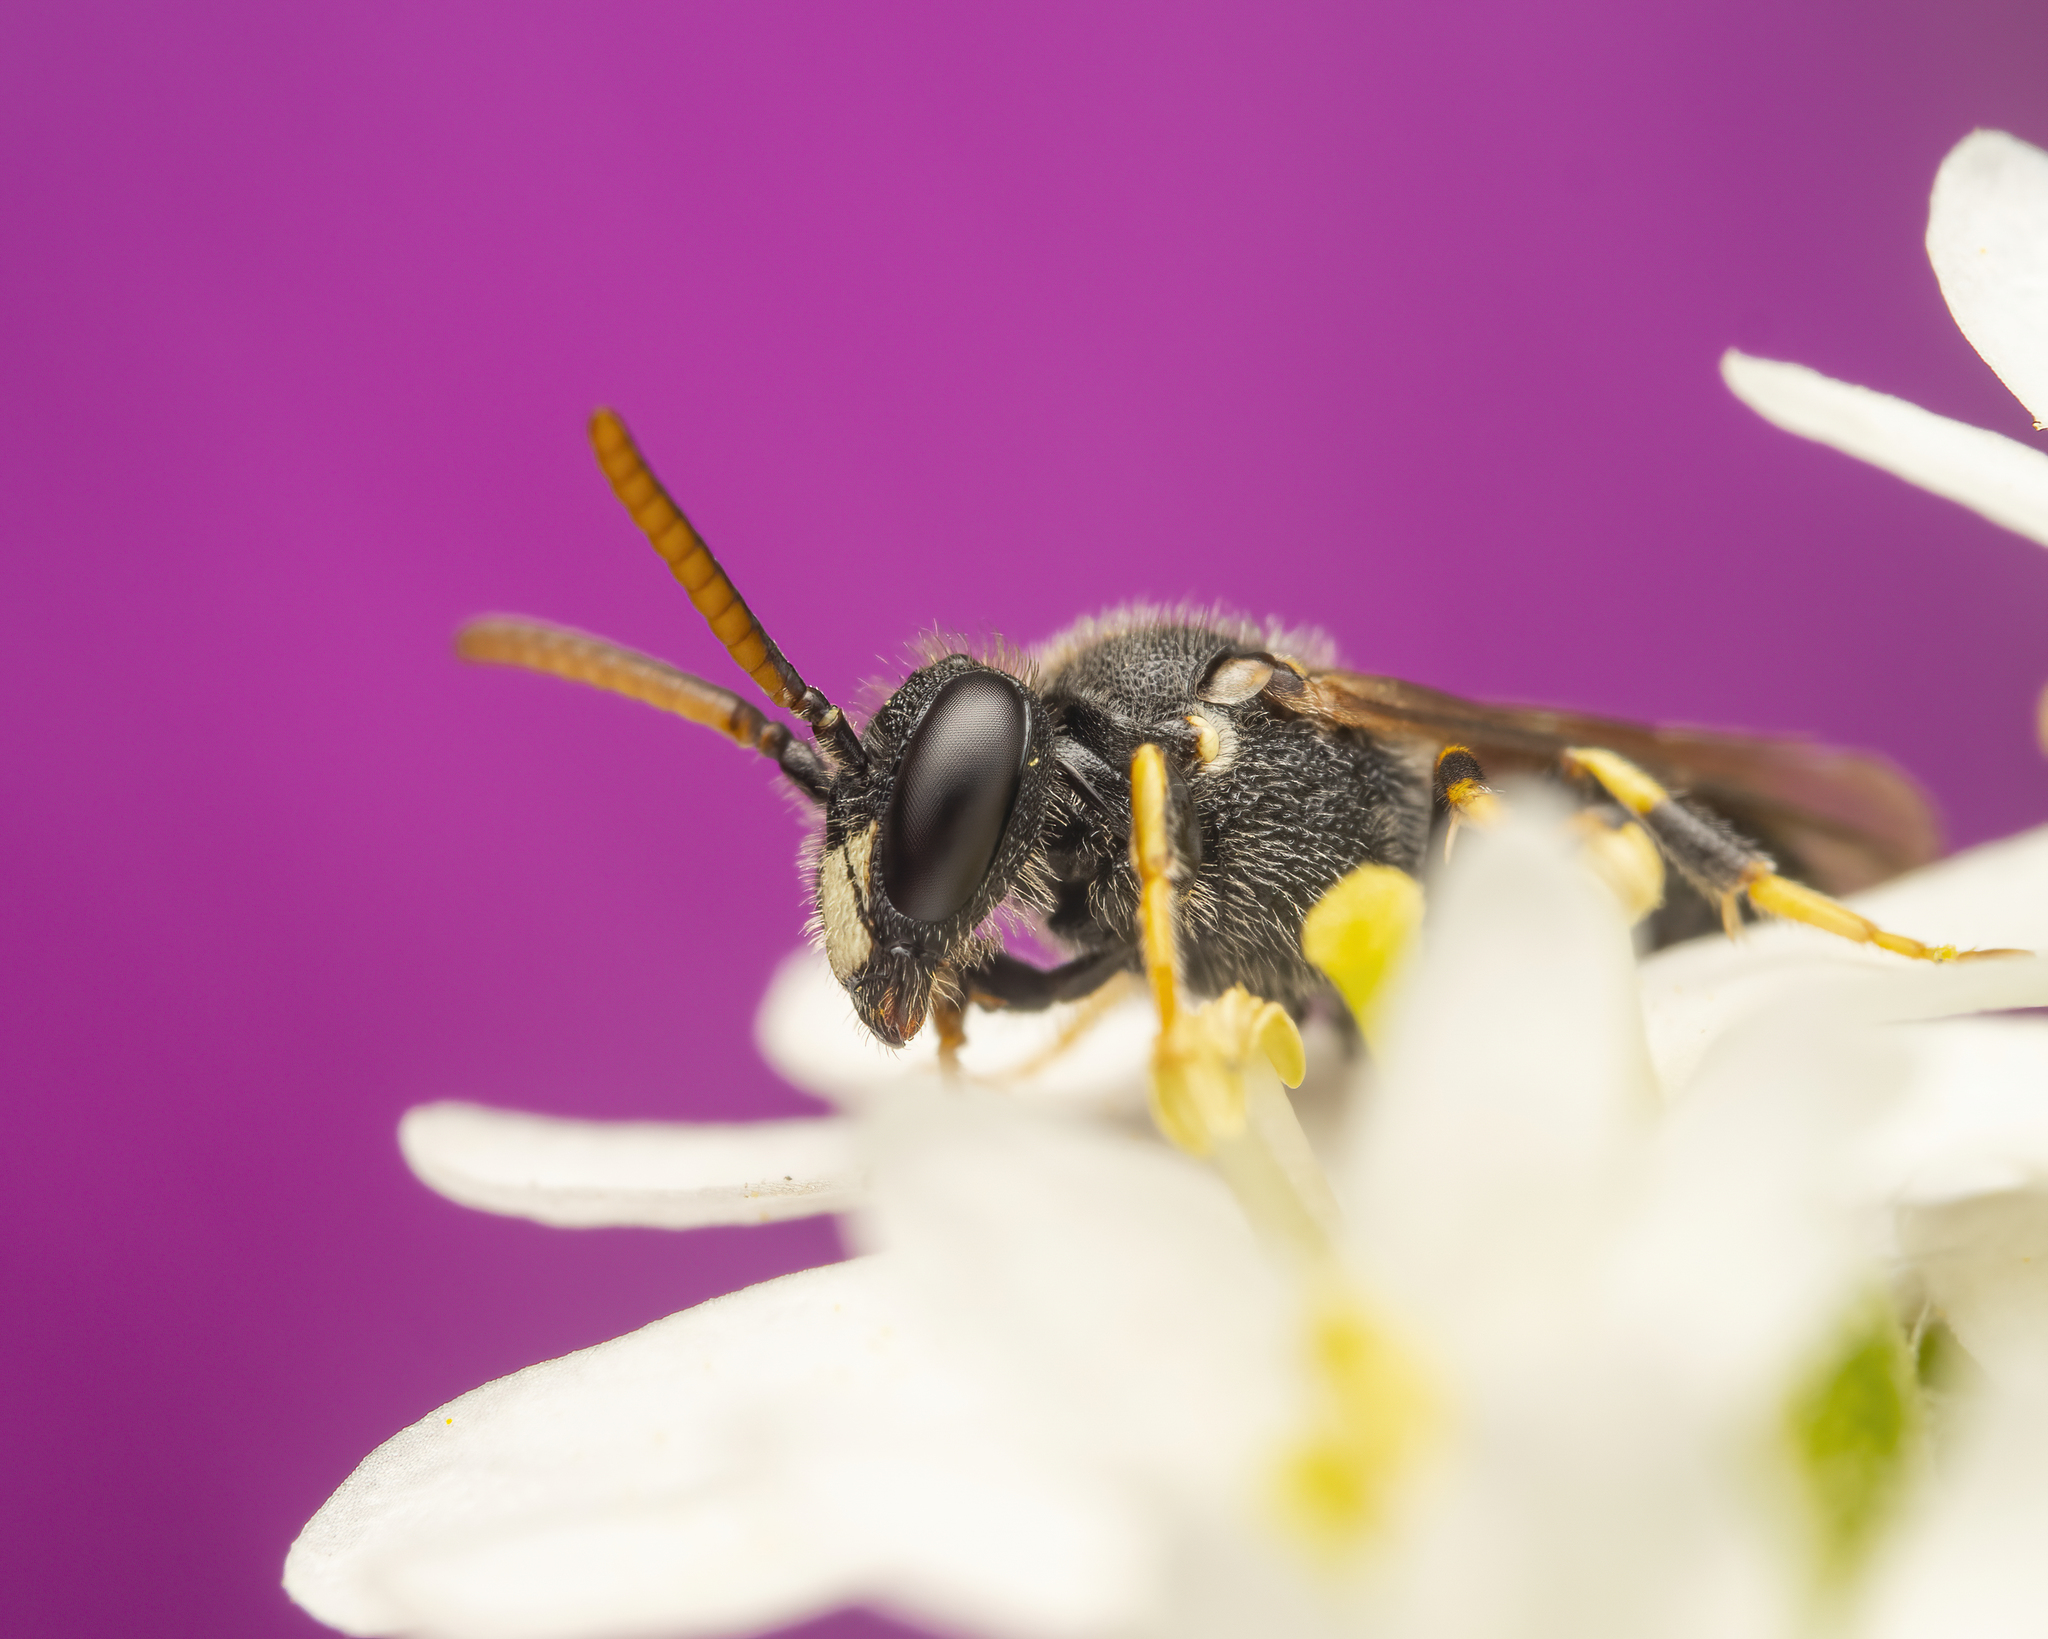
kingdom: Animalia
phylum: Arthropoda
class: Insecta
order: Hymenoptera
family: Colletidae
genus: Hylaeus
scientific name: Hylaeus punctatus
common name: Punctate masked bee
